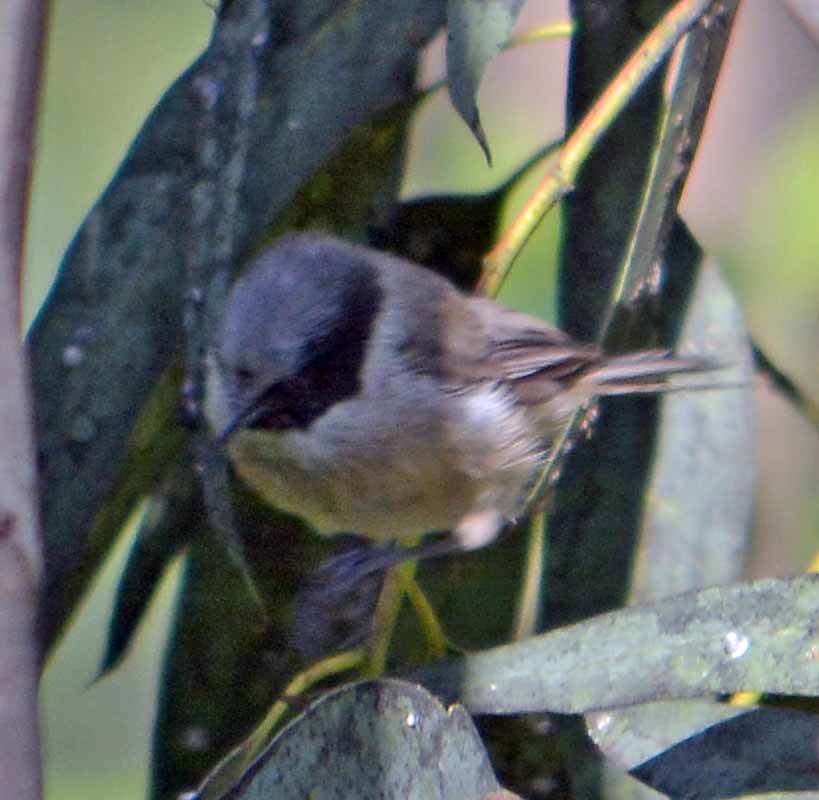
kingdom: Animalia
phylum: Chordata
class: Aves
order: Passeriformes
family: Aegithalidae
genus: Psaltriparus
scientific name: Psaltriparus minimus
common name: American bushtit
